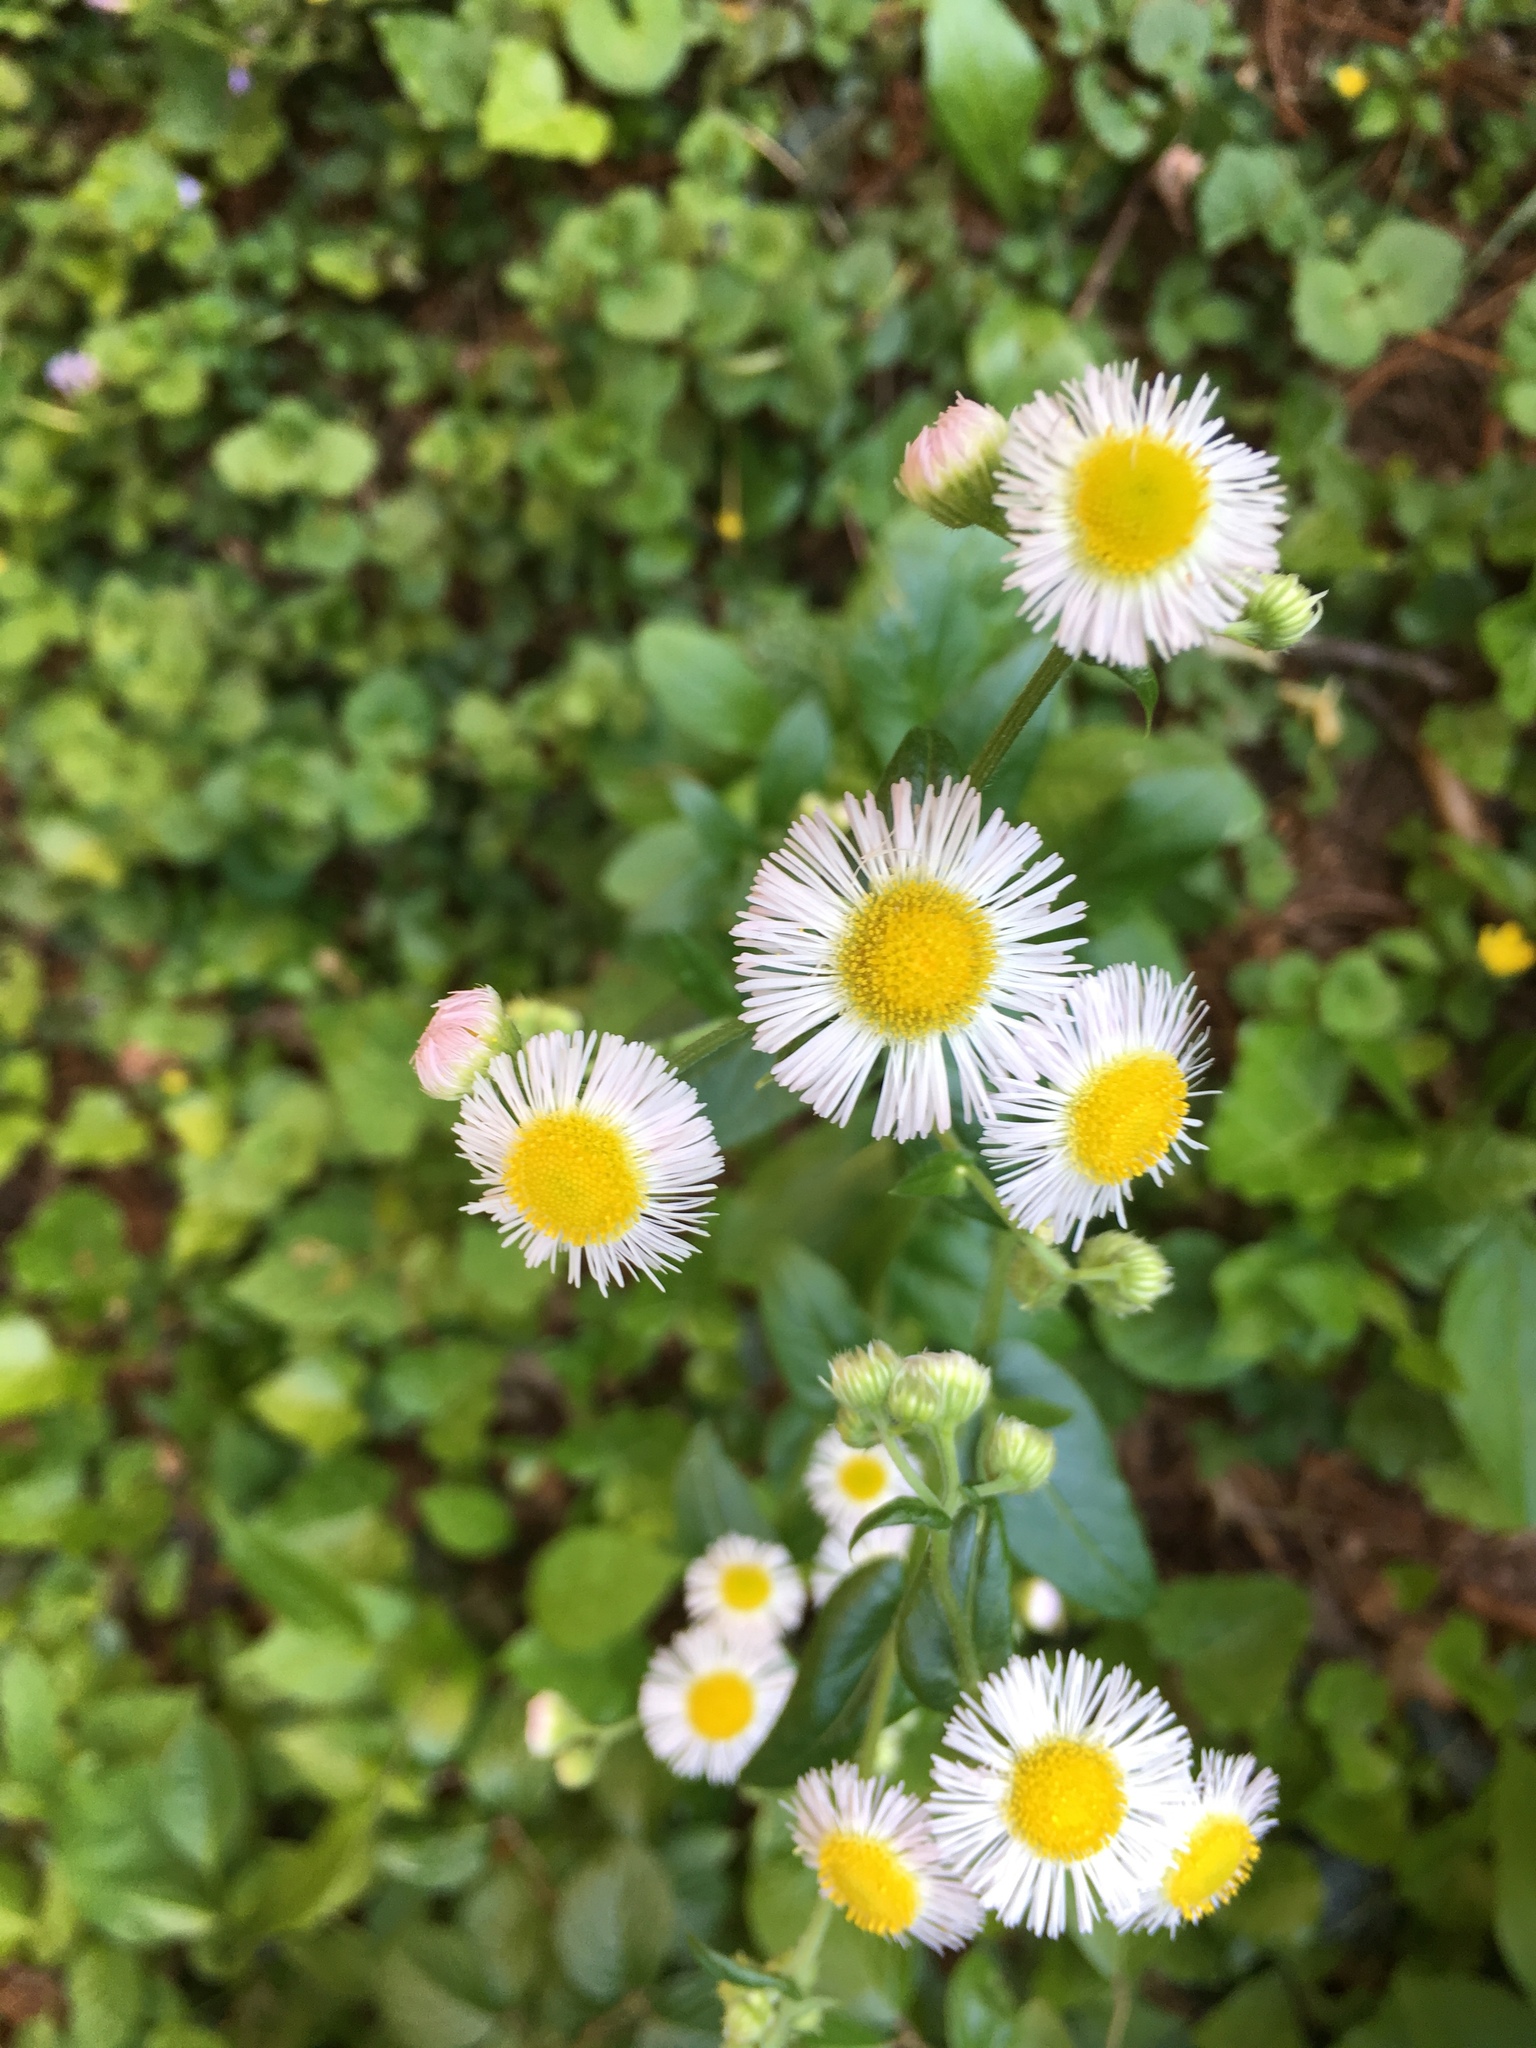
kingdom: Plantae
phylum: Tracheophyta
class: Magnoliopsida
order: Asterales
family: Asteraceae
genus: Erigeron
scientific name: Erigeron philadelphicus
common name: Robin's-plantain
